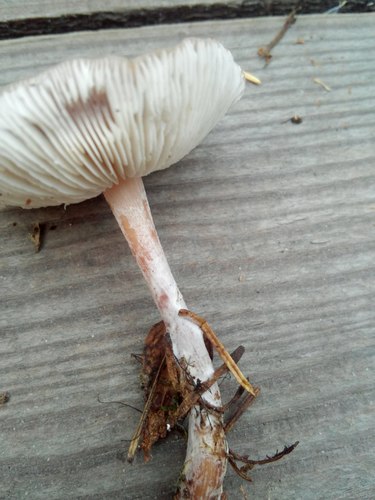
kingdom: Fungi
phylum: Basidiomycota
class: Agaricomycetes
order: Agaricales
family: Omphalotaceae
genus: Rhodocollybia
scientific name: Rhodocollybia butyracea
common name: Butter cap
